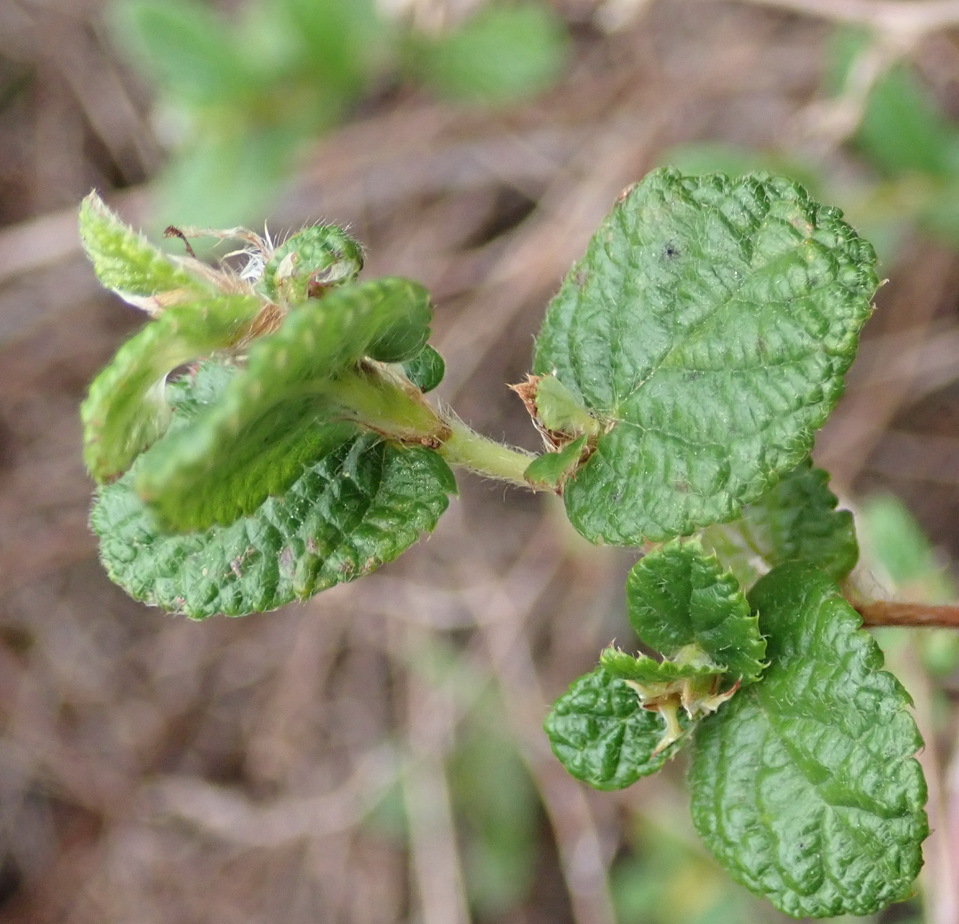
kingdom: Plantae
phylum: Tracheophyta
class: Magnoliopsida
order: Rosales
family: Rosaceae
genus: Cliffortia
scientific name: Cliffortia odorata
